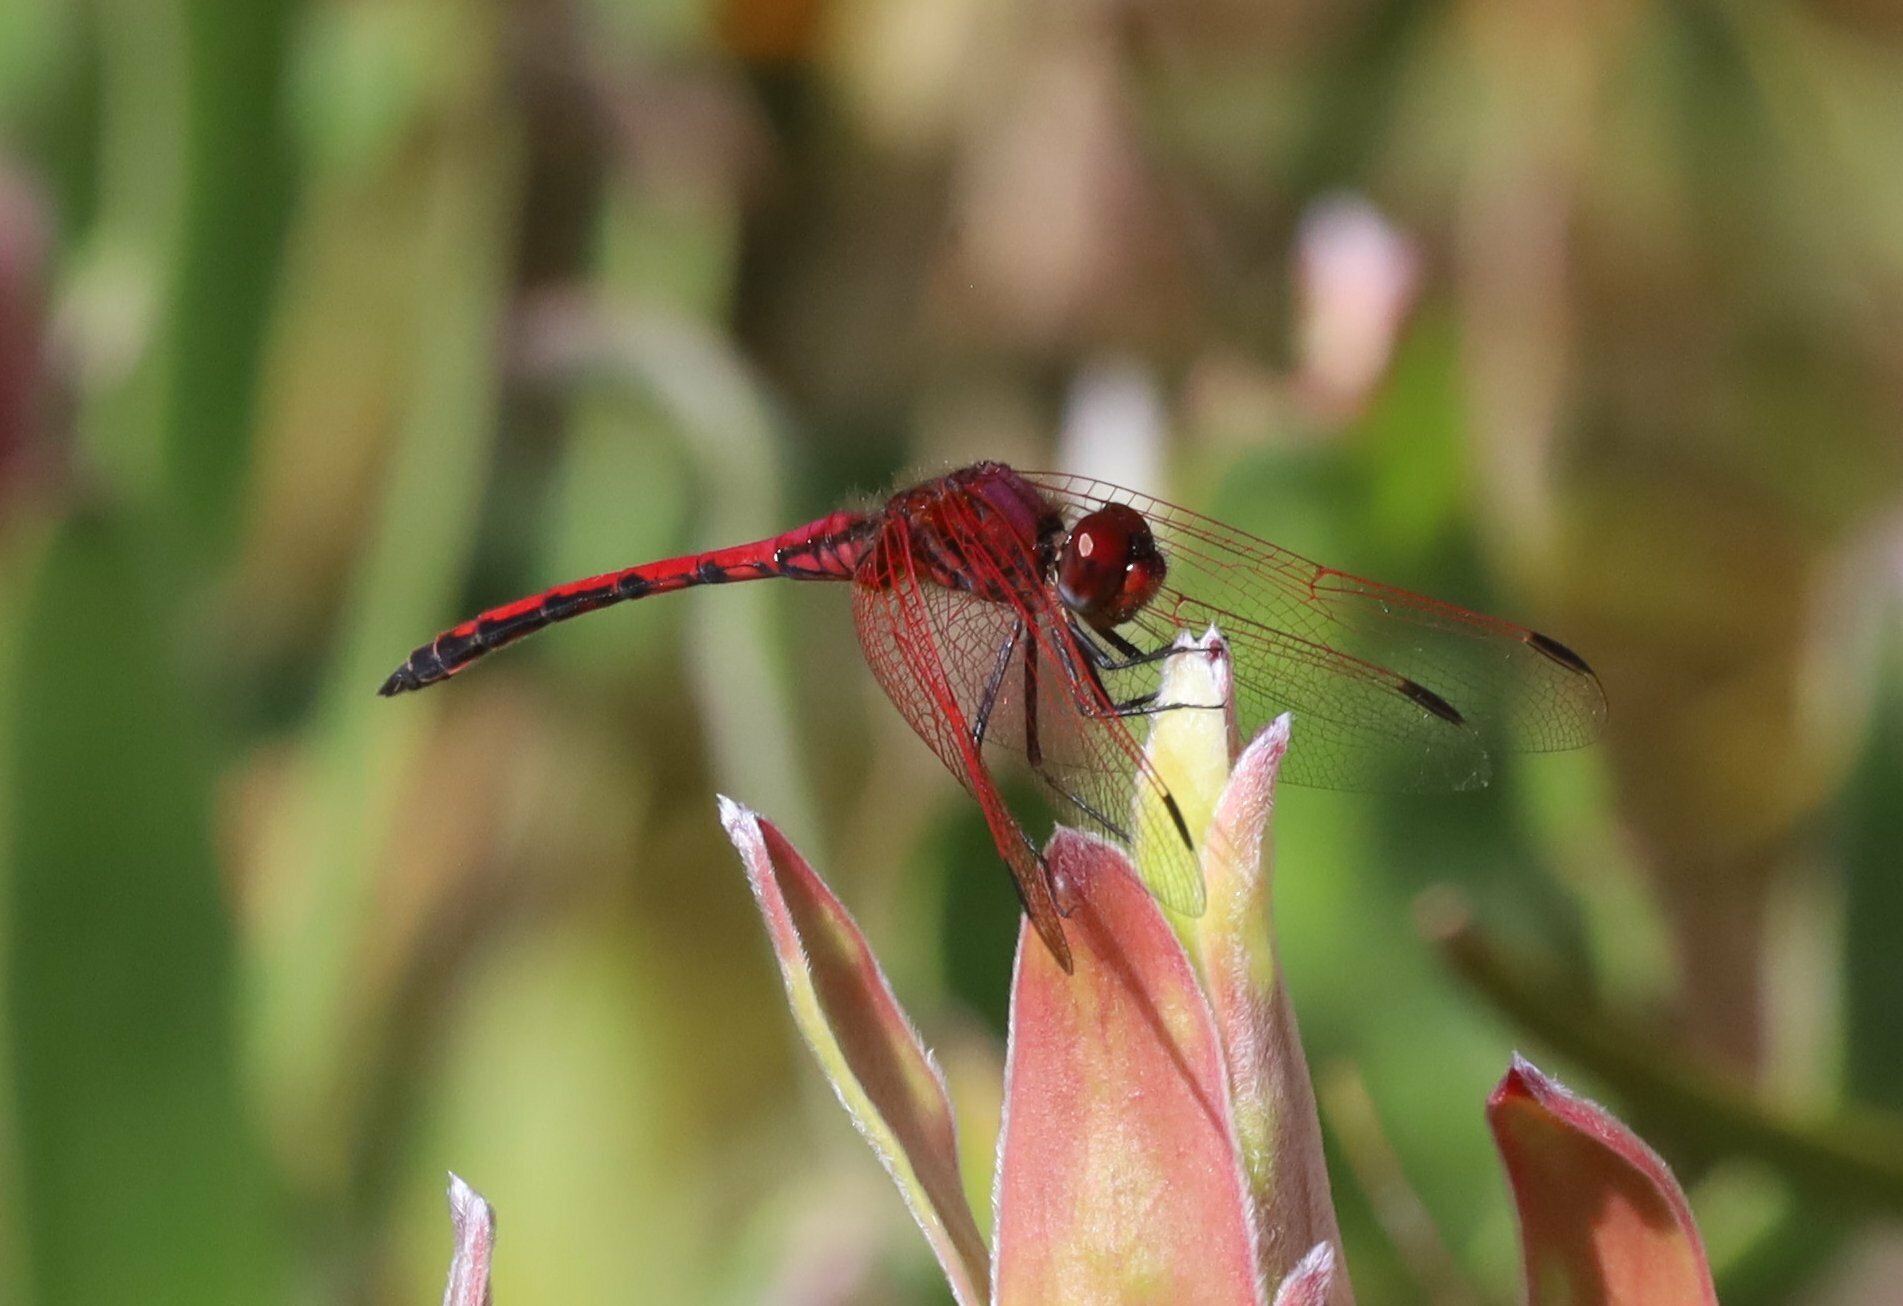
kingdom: Animalia
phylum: Arthropoda
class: Insecta
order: Odonata
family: Libellulidae
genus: Trithemis
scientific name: Trithemis arteriosa
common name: Red-veined dropwing
